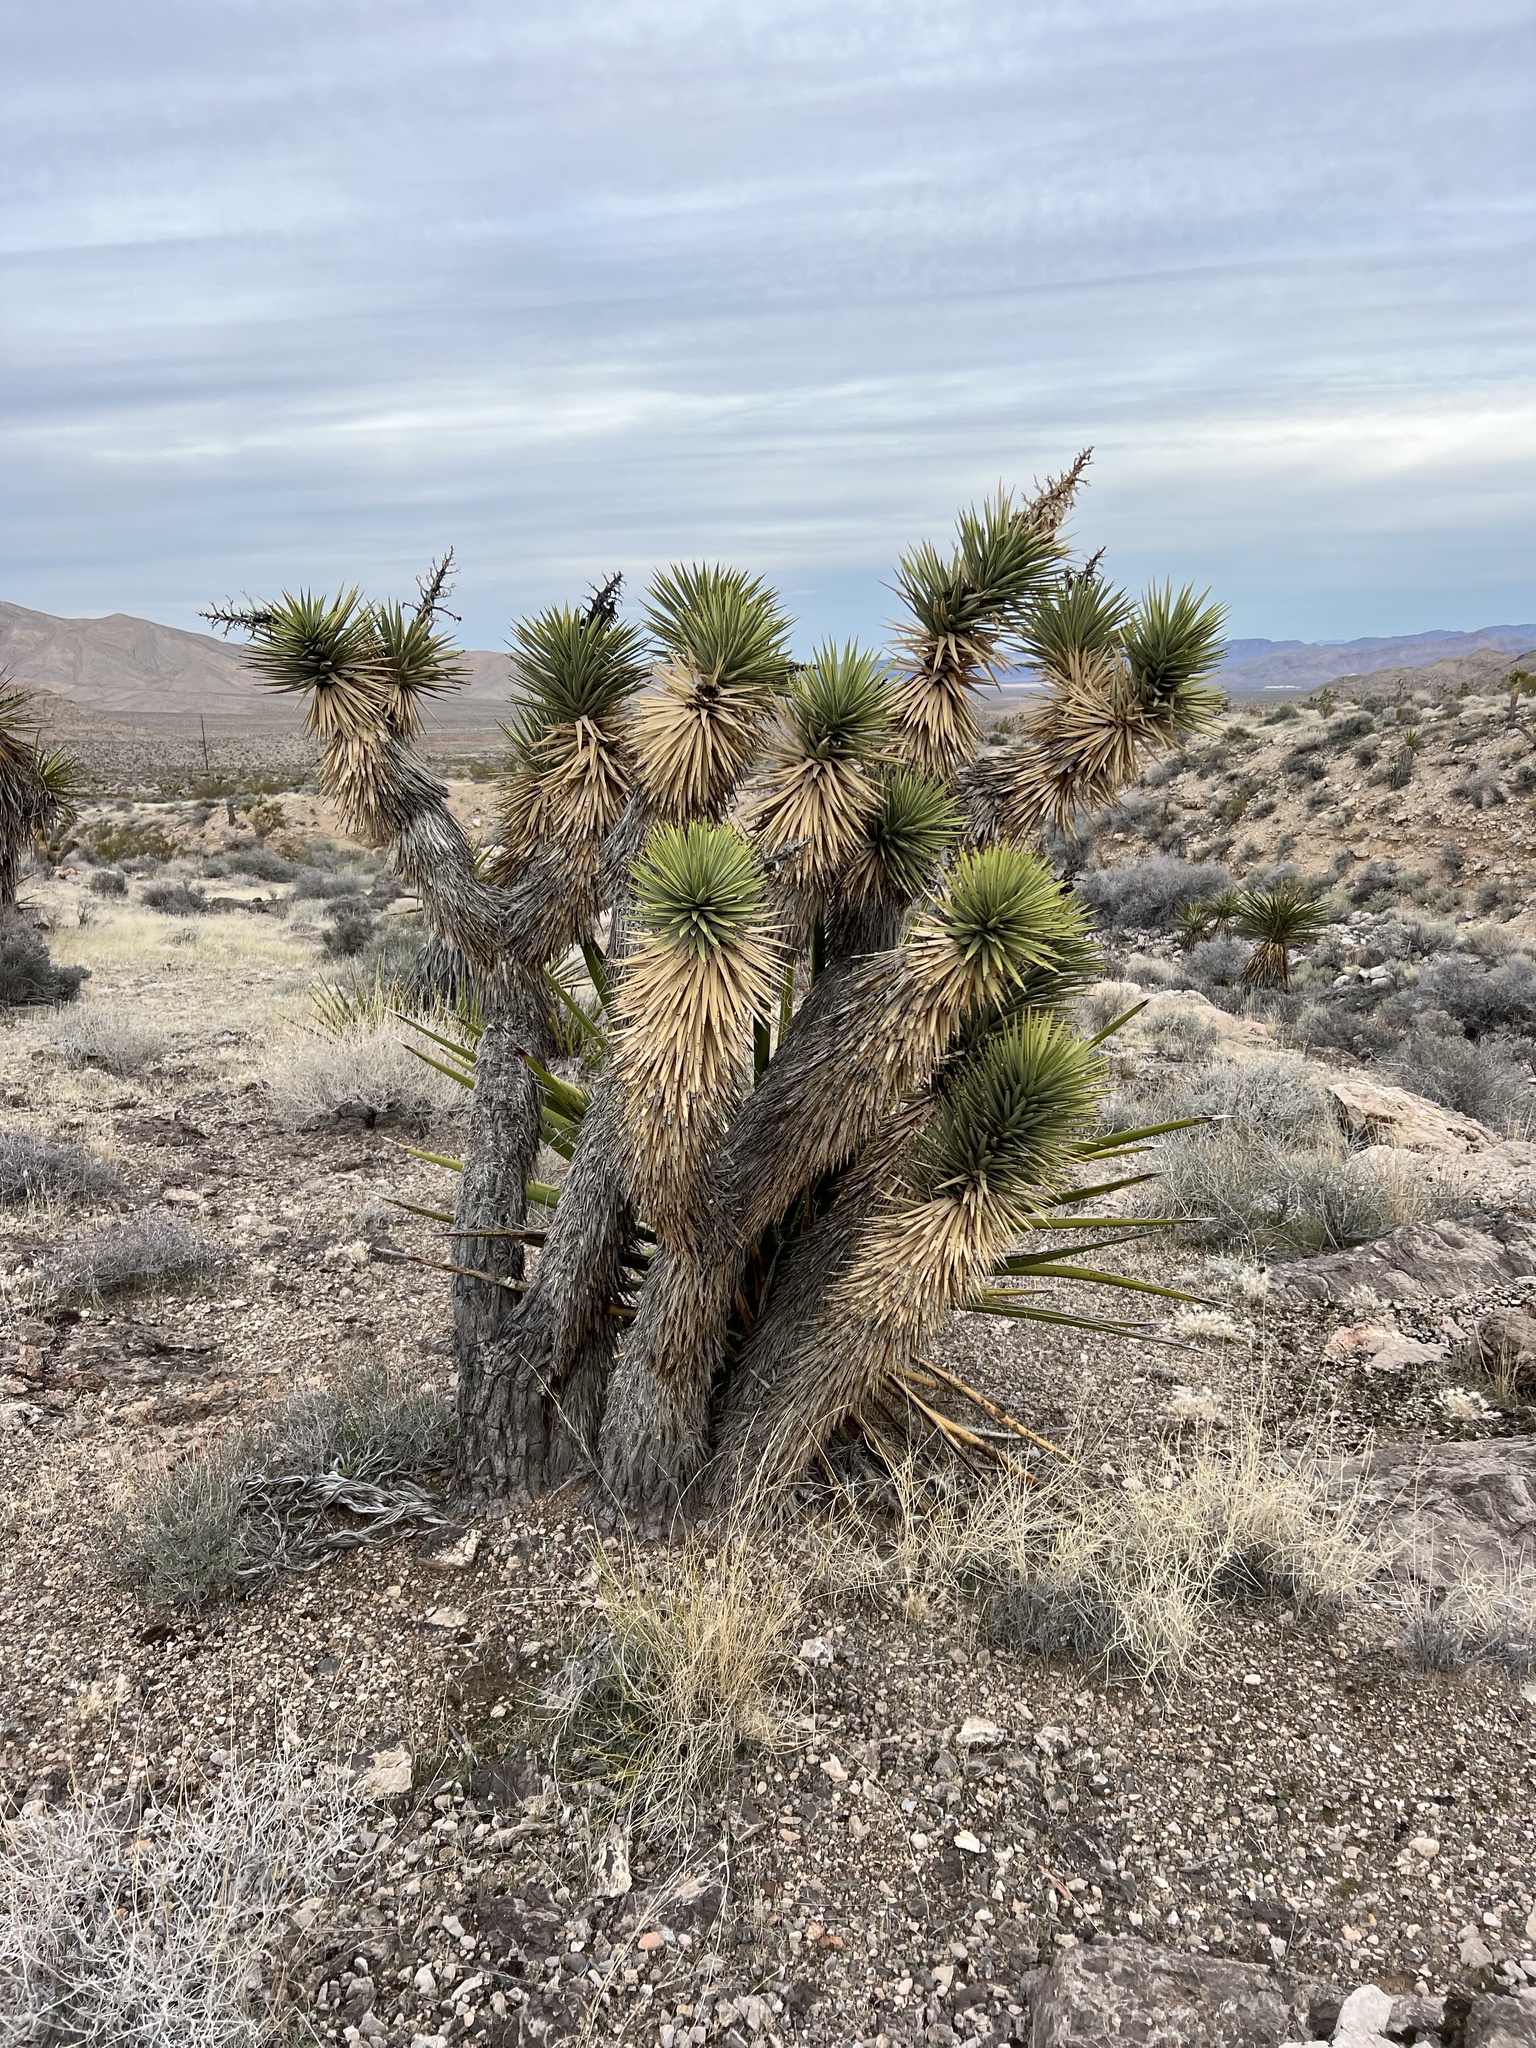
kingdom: Plantae
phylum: Tracheophyta
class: Liliopsida
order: Asparagales
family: Asparagaceae
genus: Yucca
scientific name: Yucca brevifolia
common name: Joshua tree
